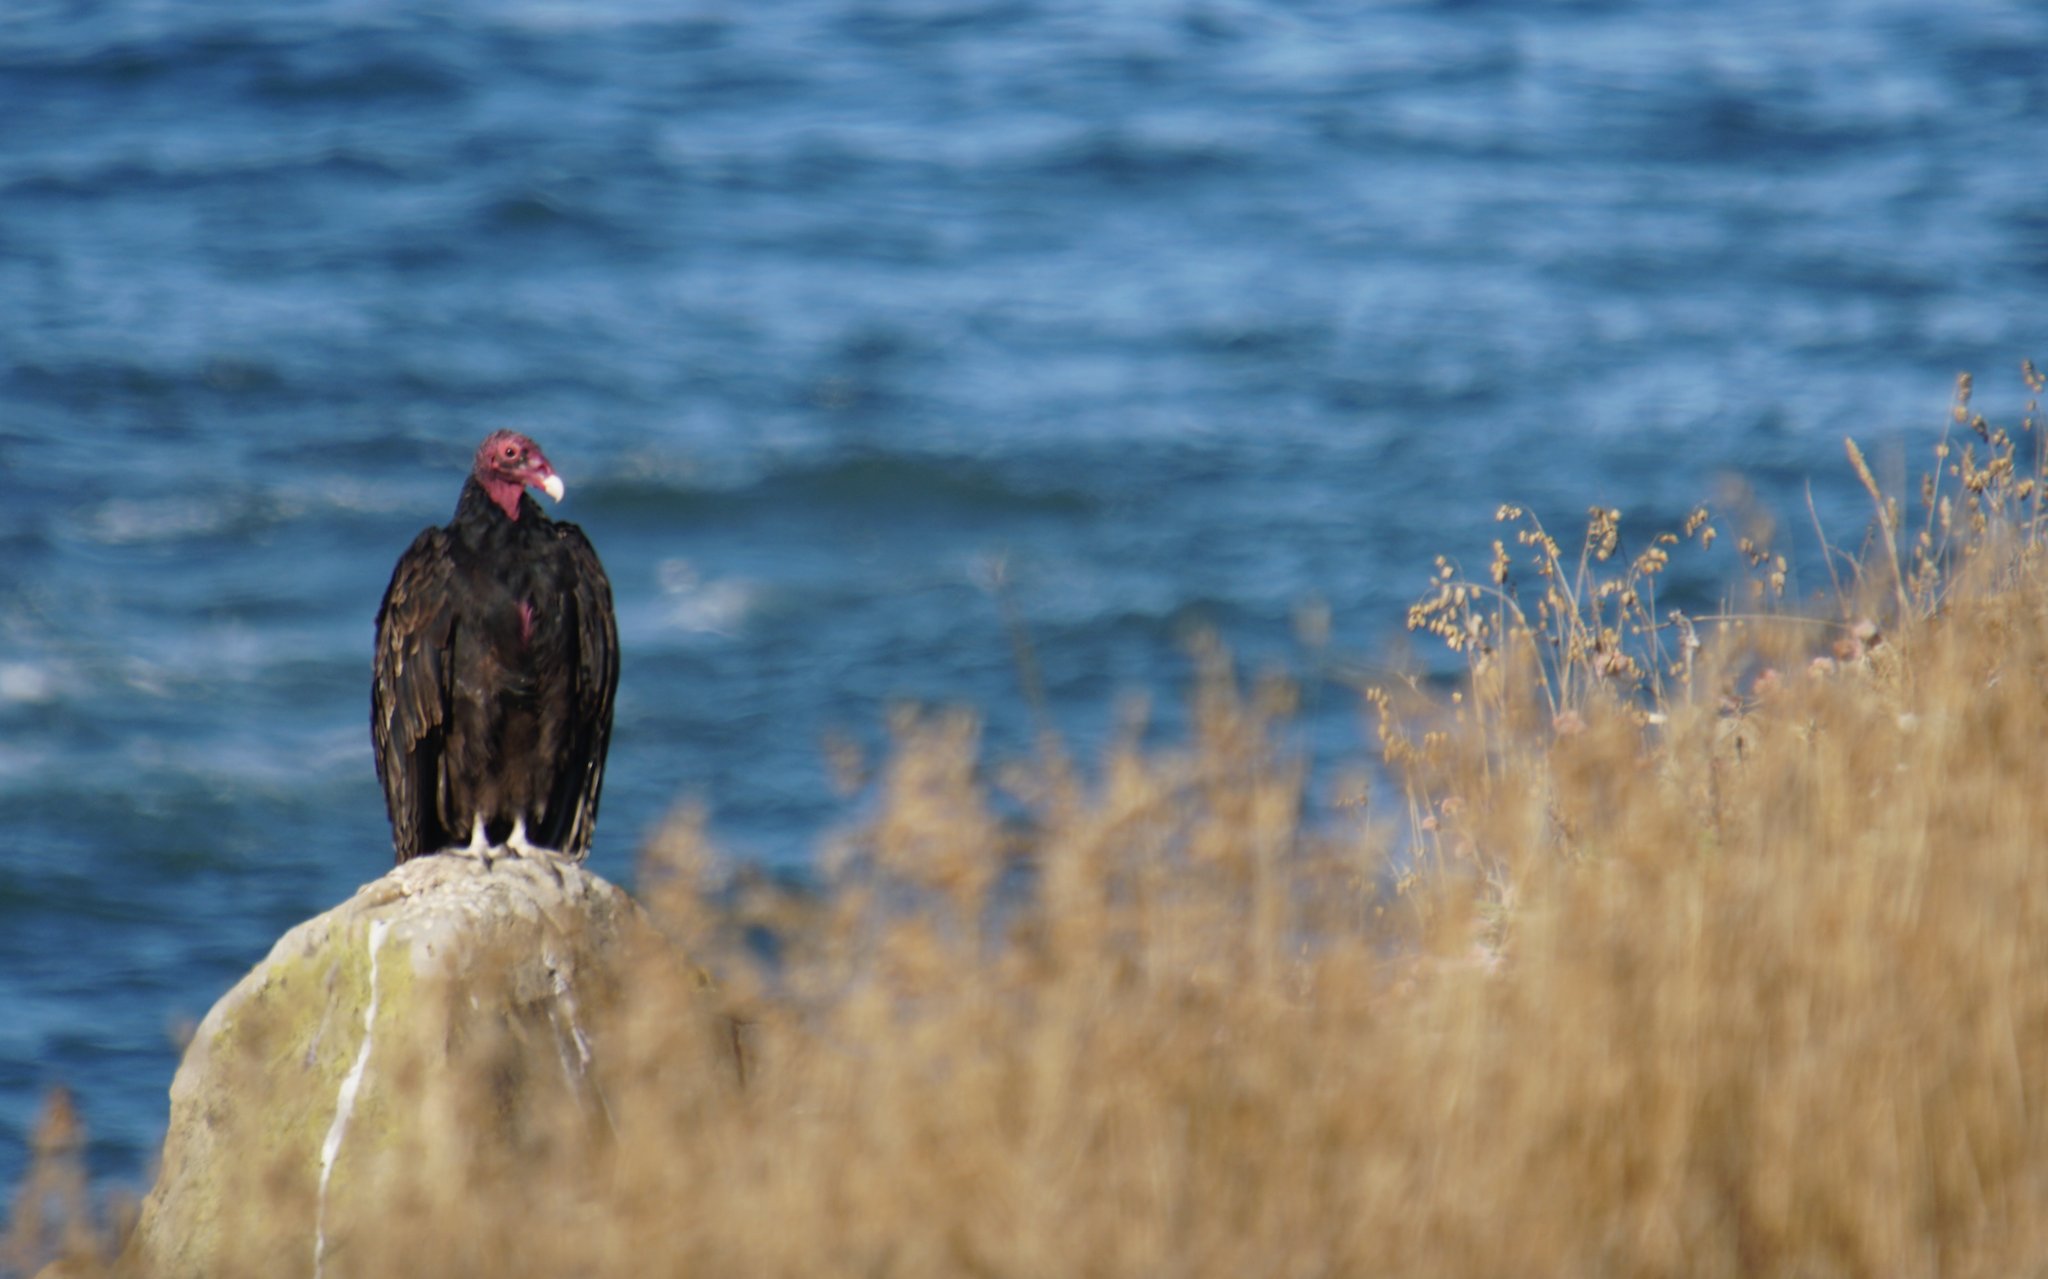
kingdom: Animalia
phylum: Chordata
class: Aves
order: Accipitriformes
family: Cathartidae
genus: Cathartes
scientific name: Cathartes aura
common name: Turkey vulture
